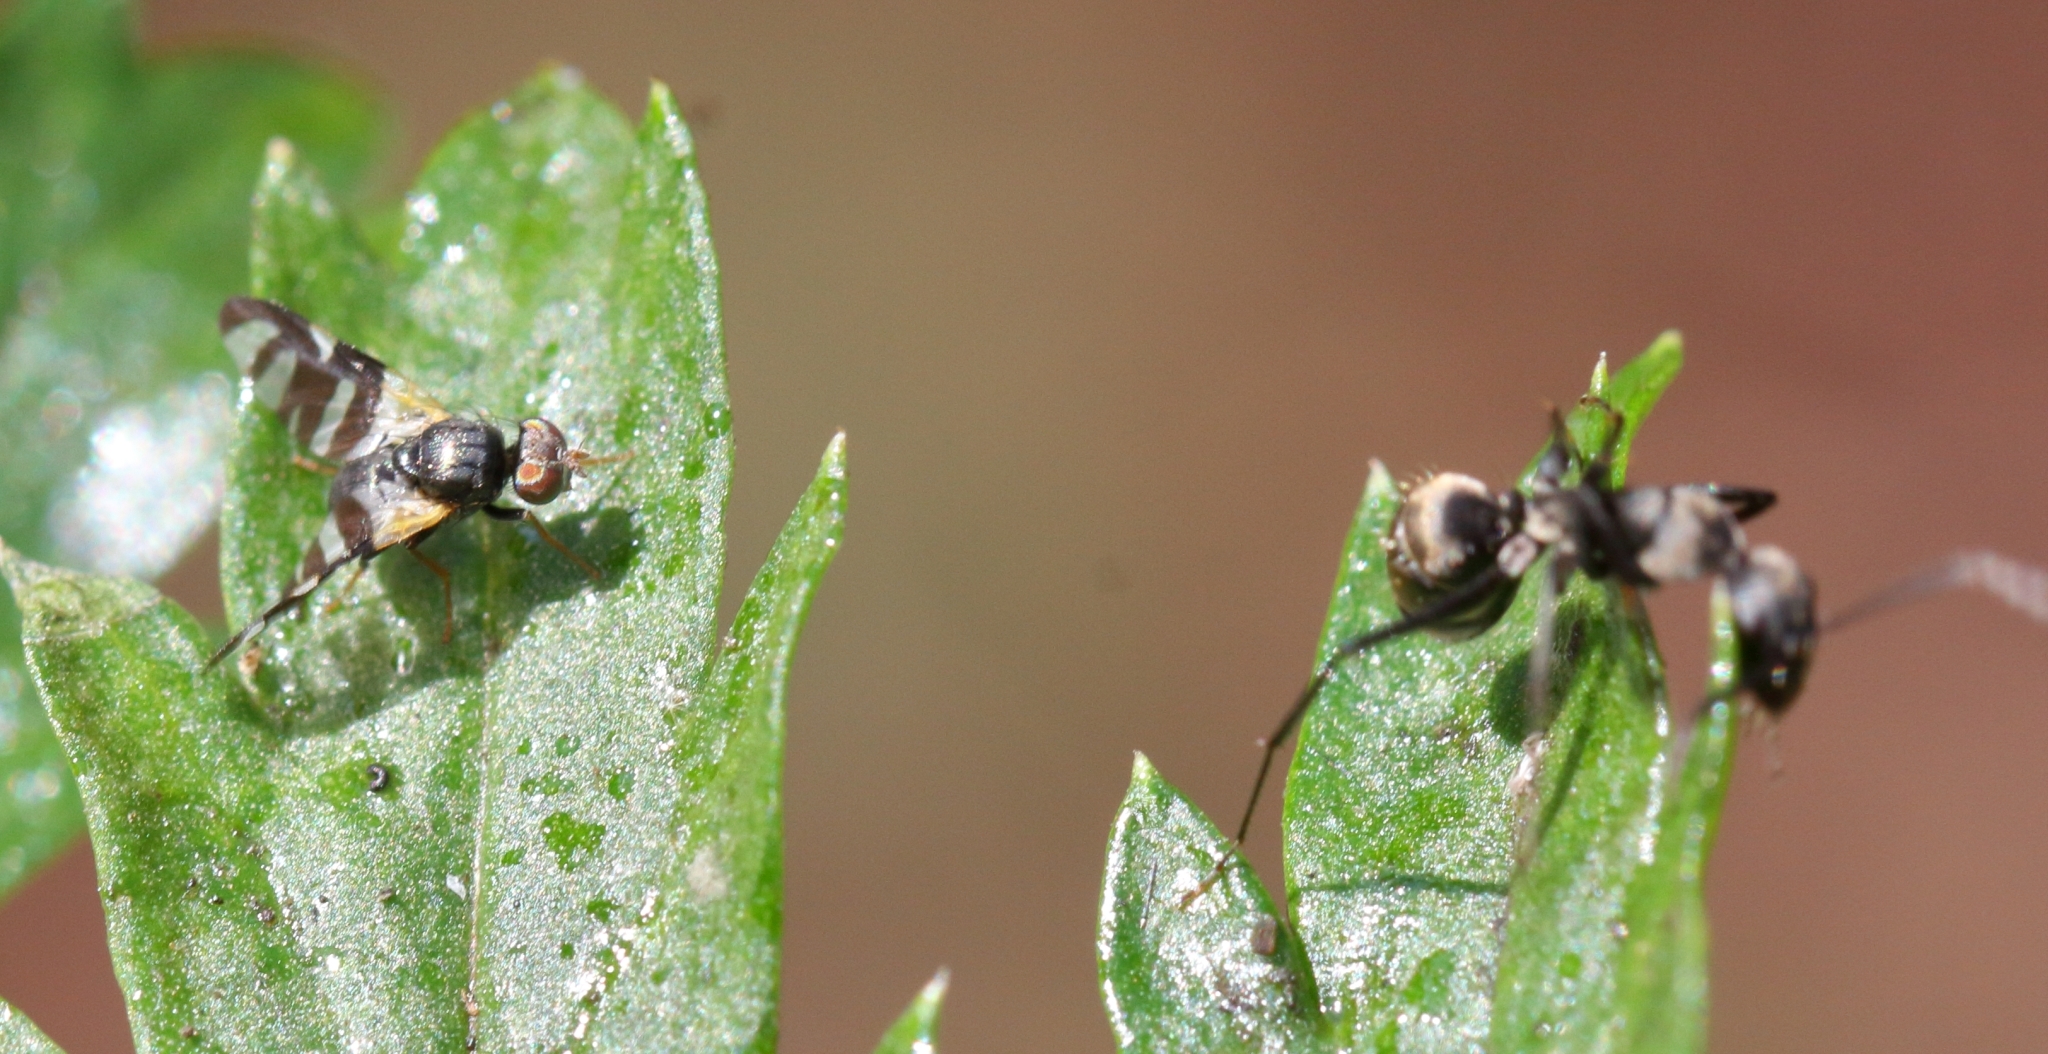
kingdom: Animalia
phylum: Arthropoda
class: Insecta
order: Diptera
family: Tephritidae
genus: Sphaeniscus
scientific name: Sphaeniscus sexmaculatus
